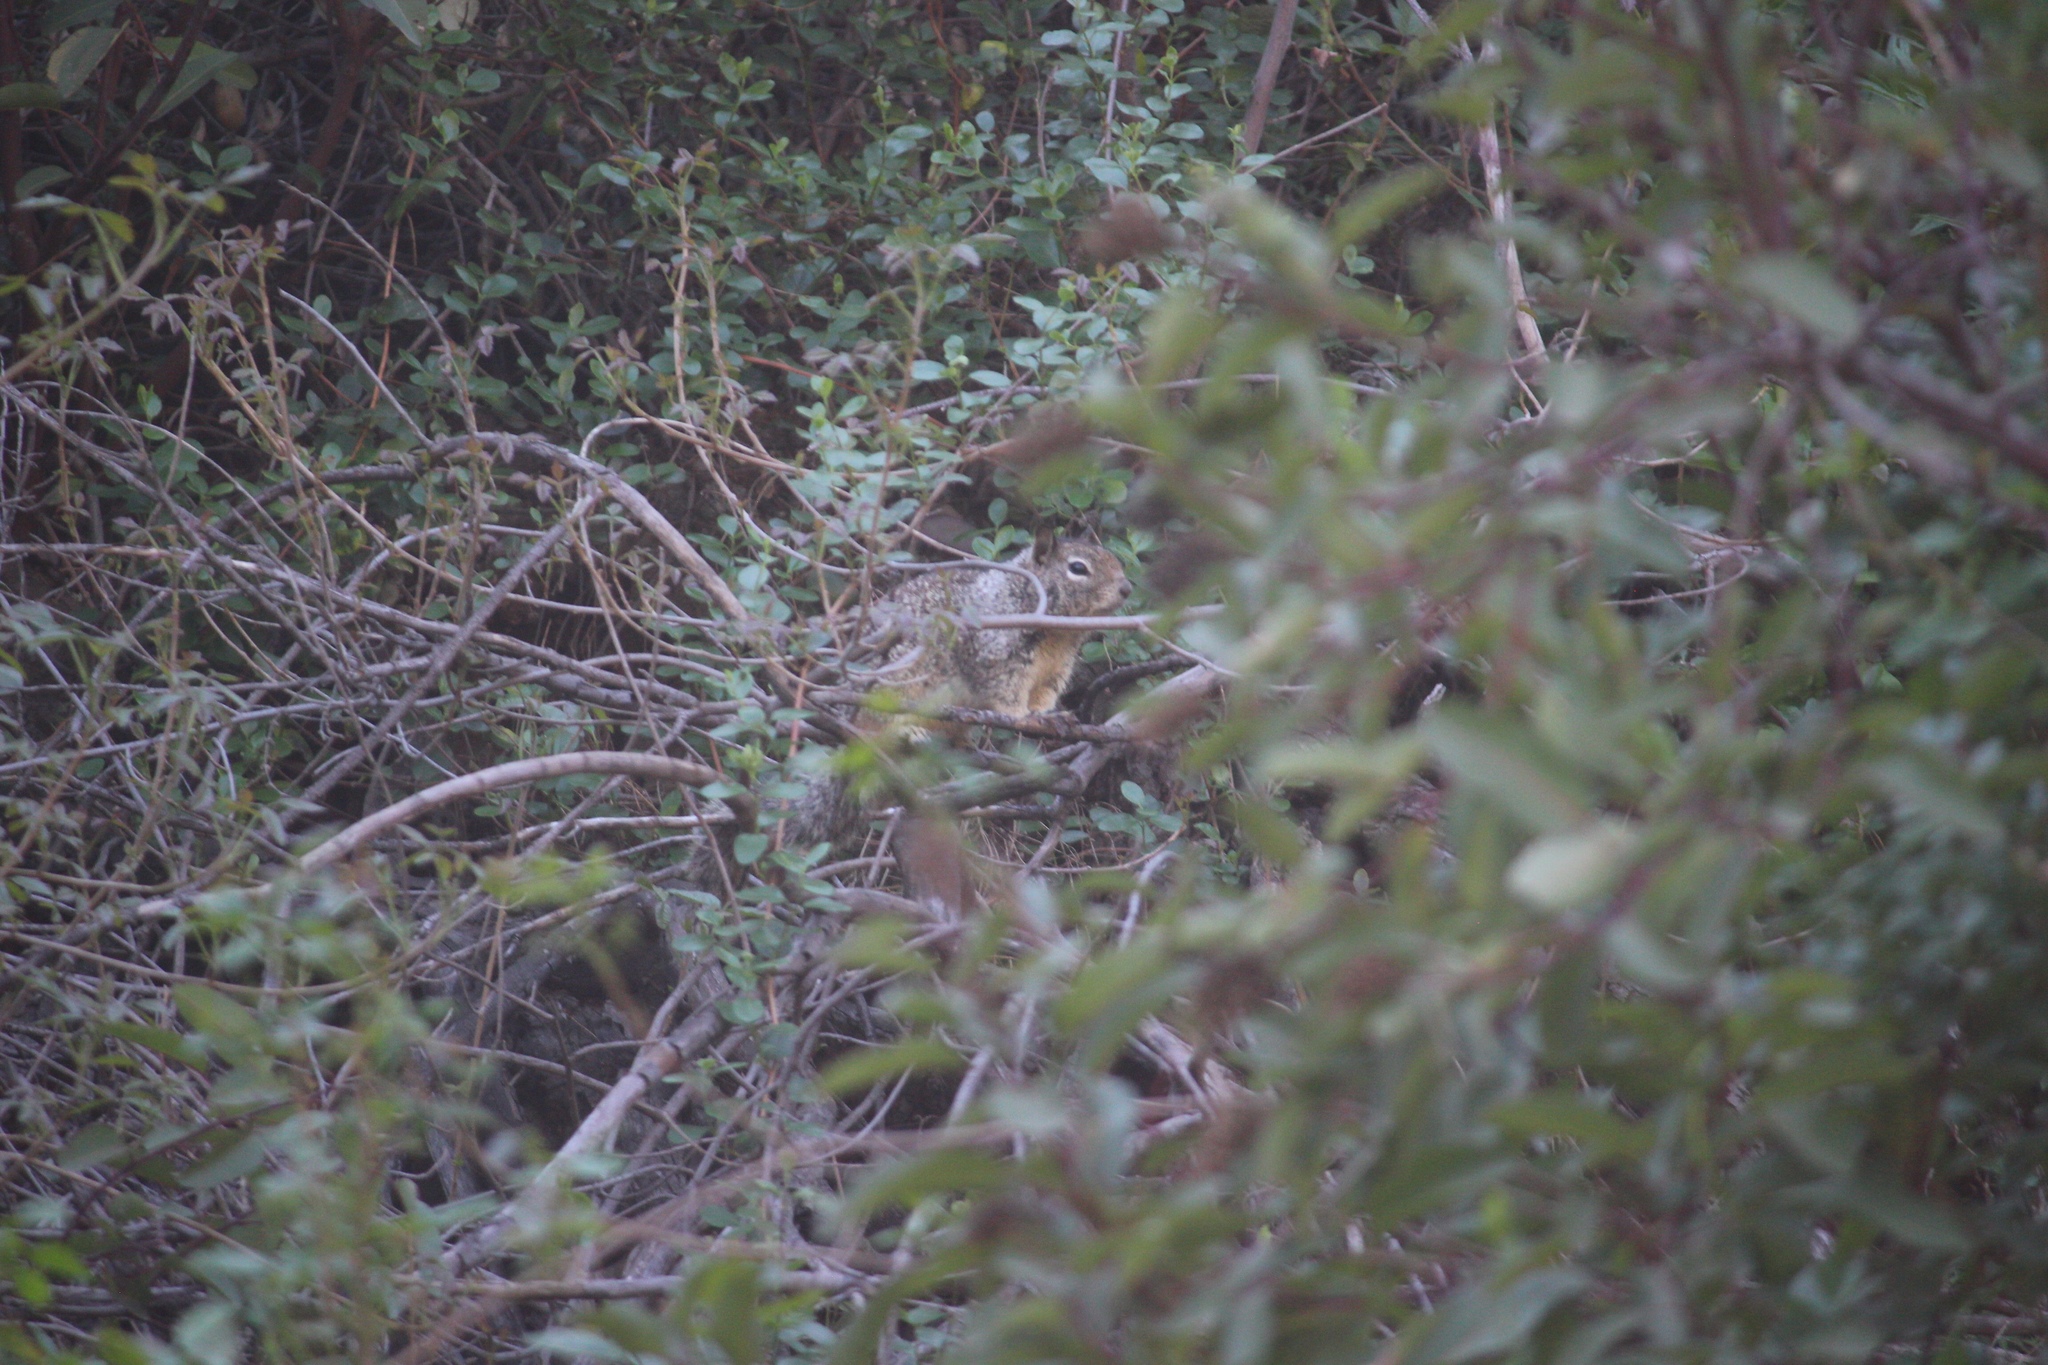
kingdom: Animalia
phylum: Chordata
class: Mammalia
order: Rodentia
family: Sciuridae
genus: Otospermophilus
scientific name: Otospermophilus beecheyi
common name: California ground squirrel
